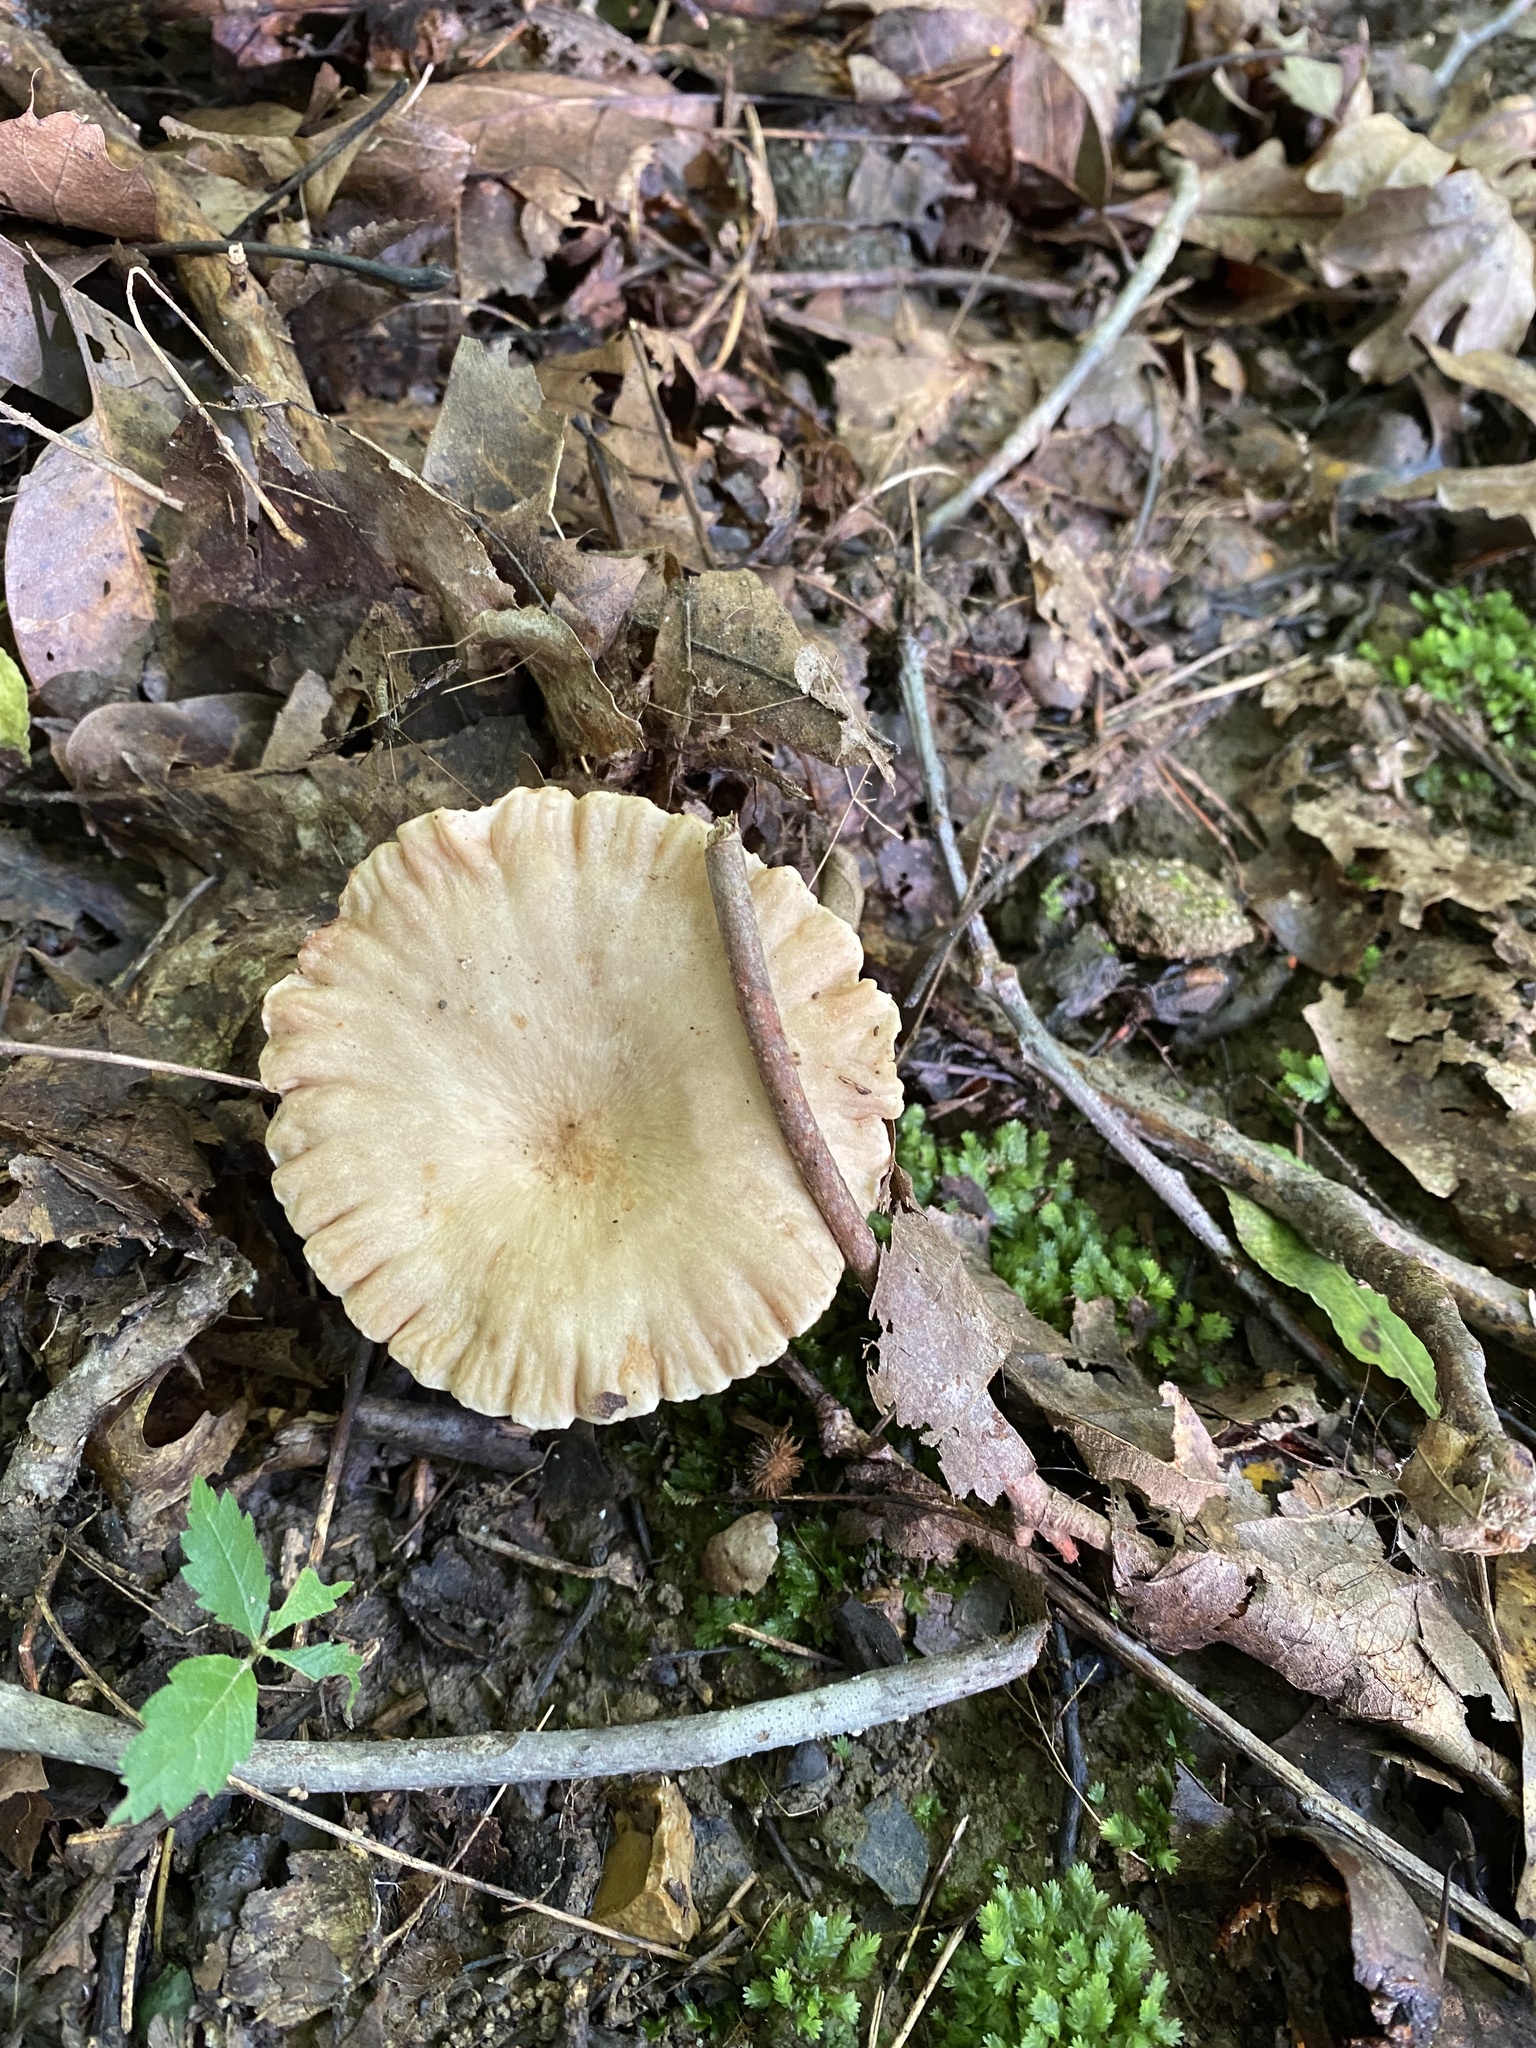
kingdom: Fungi
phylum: Basidiomycota
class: Agaricomycetes
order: Russulales
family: Russulaceae
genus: Lactarius
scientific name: Lactarius subplinthogalus
